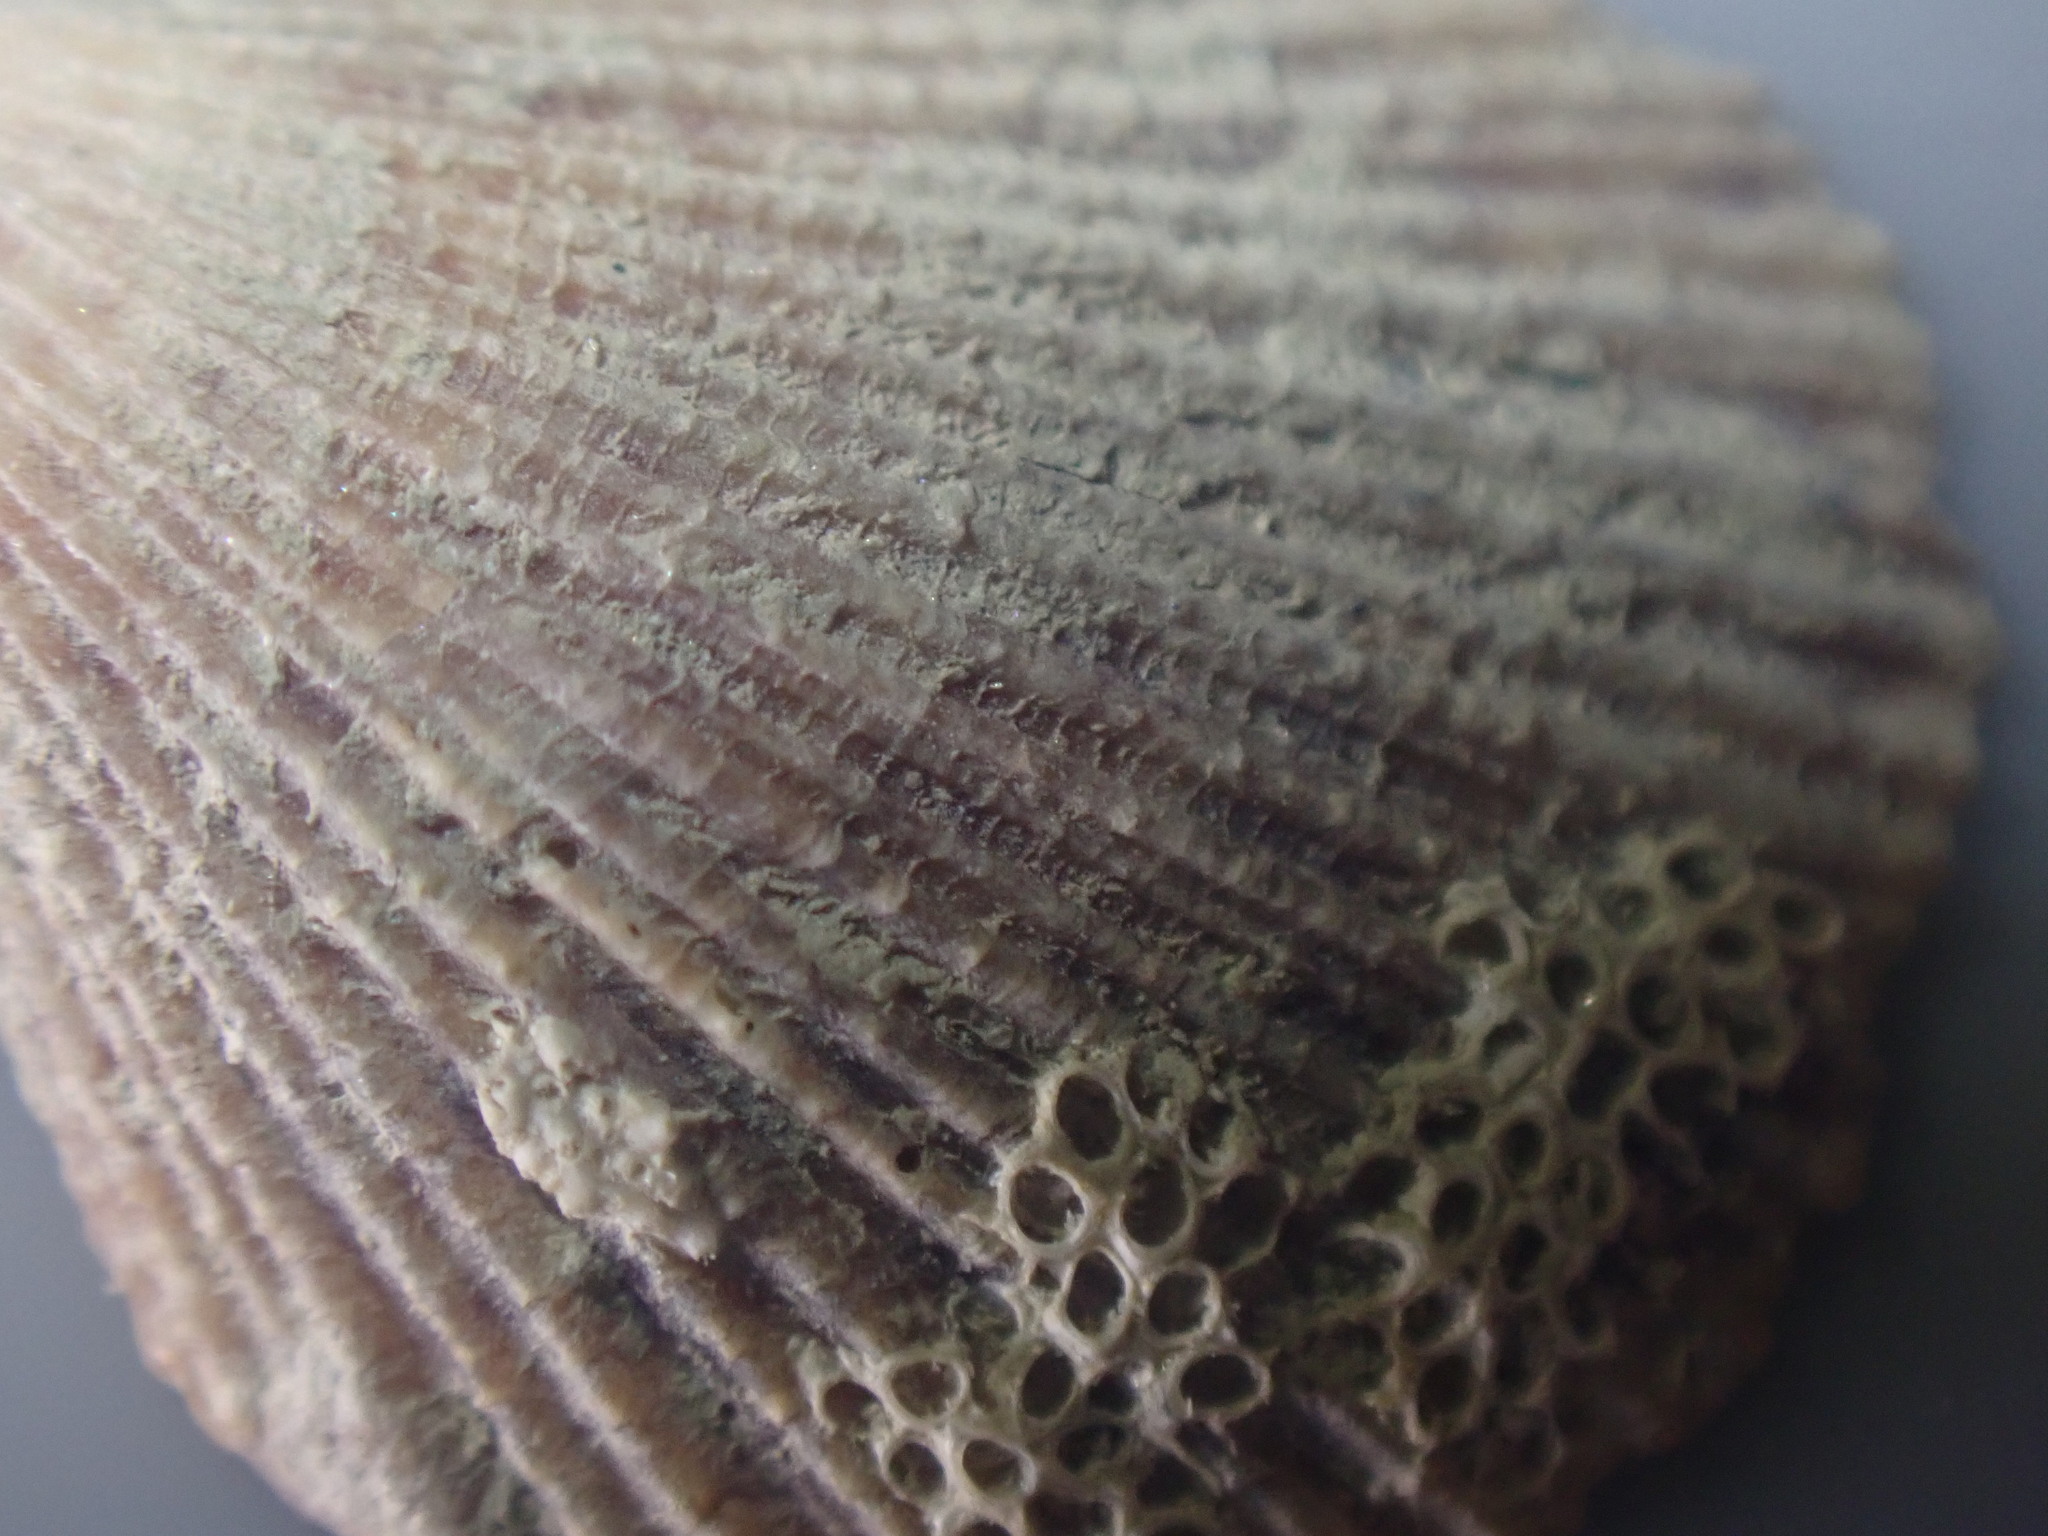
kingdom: Animalia
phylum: Mollusca
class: Bivalvia
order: Pectinida
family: Pectinidae
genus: Talochlamys
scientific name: Talochlamys zelandiae
